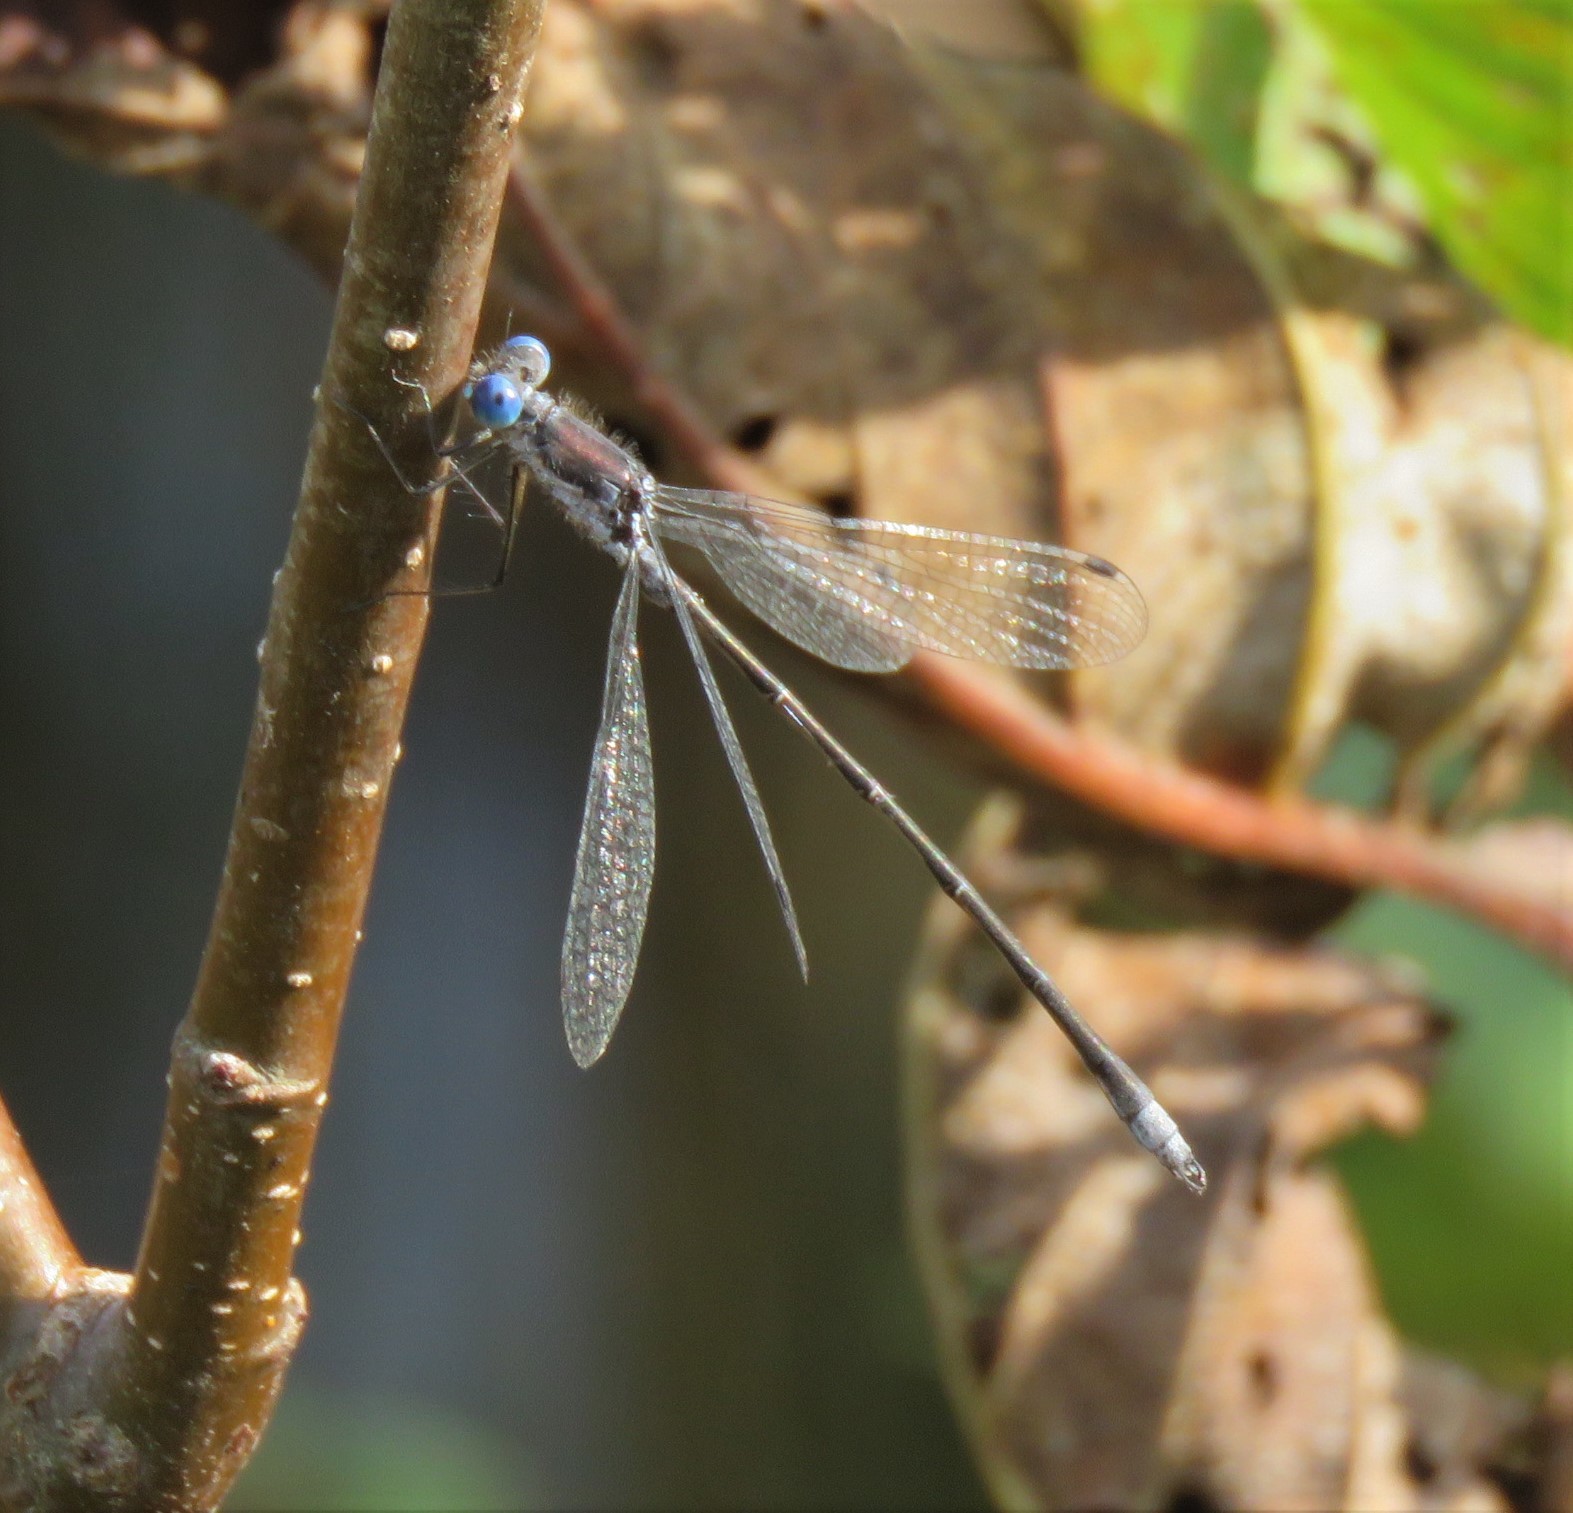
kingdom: Animalia
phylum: Arthropoda
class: Insecta
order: Odonata
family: Lestidae
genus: Lestes
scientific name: Lestes congener
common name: Spotted spreadwing
